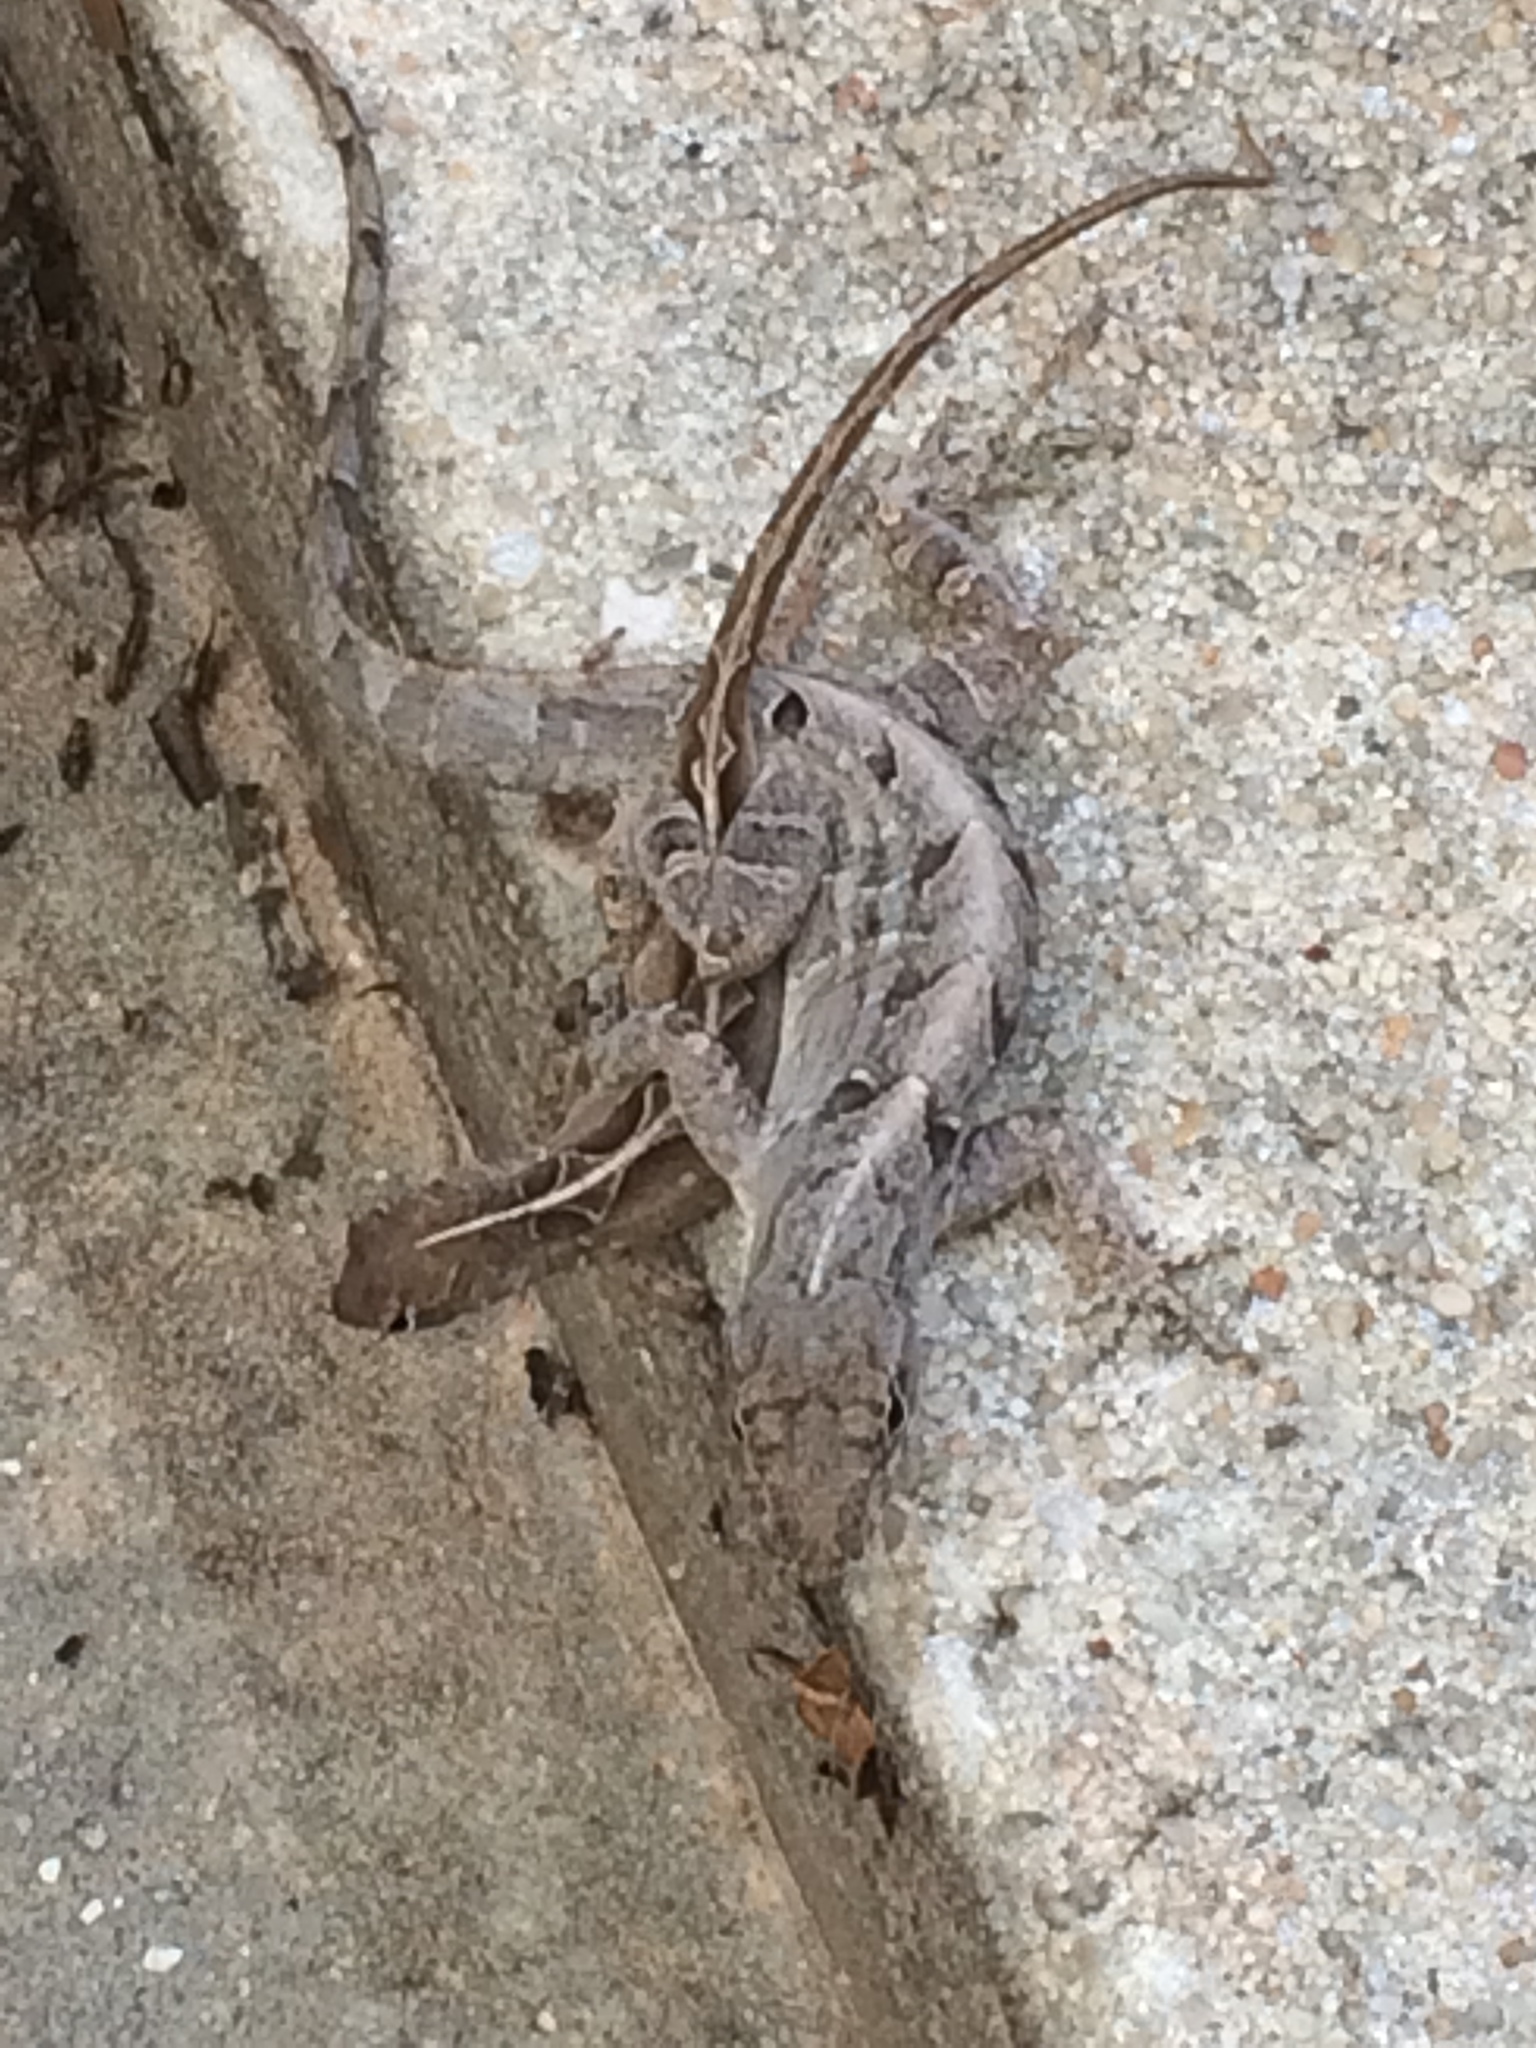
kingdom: Animalia
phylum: Chordata
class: Squamata
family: Dactyloidae
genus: Anolis
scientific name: Anolis sagrei
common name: Brown anole
